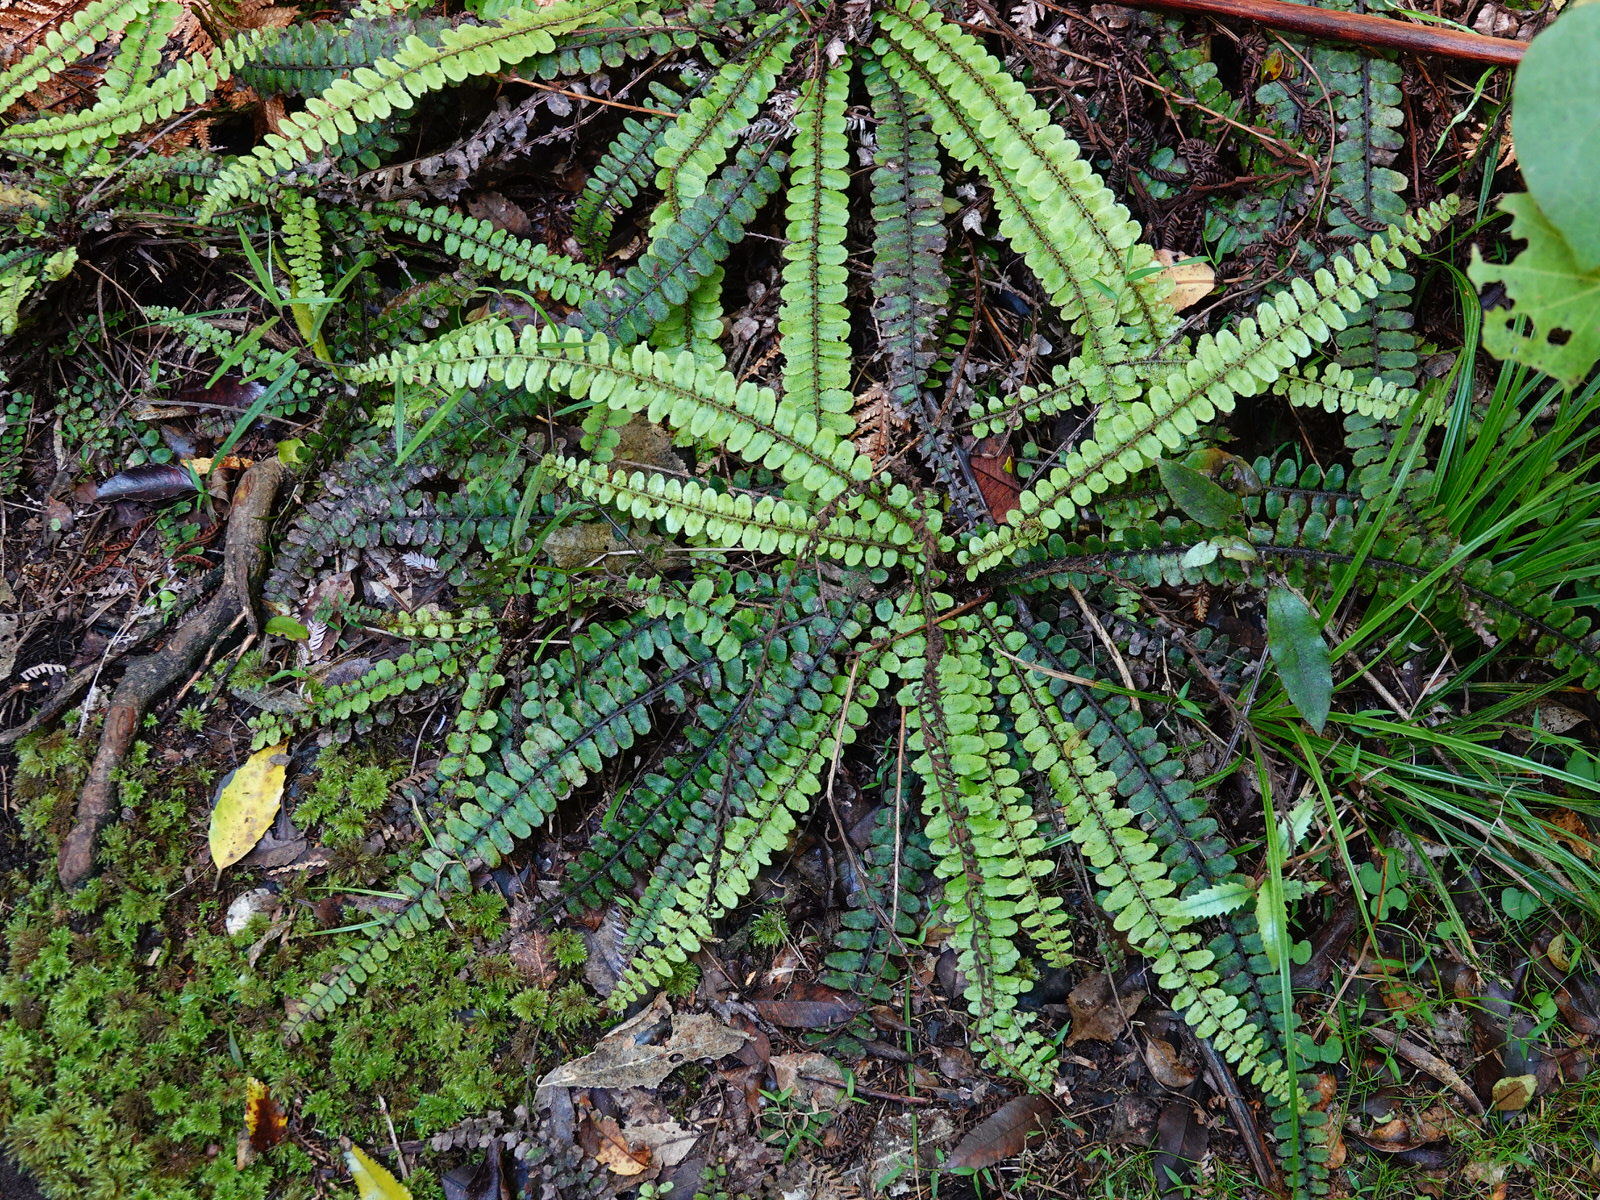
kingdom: Plantae
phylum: Tracheophyta
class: Polypodiopsida
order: Polypodiales
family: Blechnaceae
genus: Cranfillia
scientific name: Cranfillia fluviatilis
